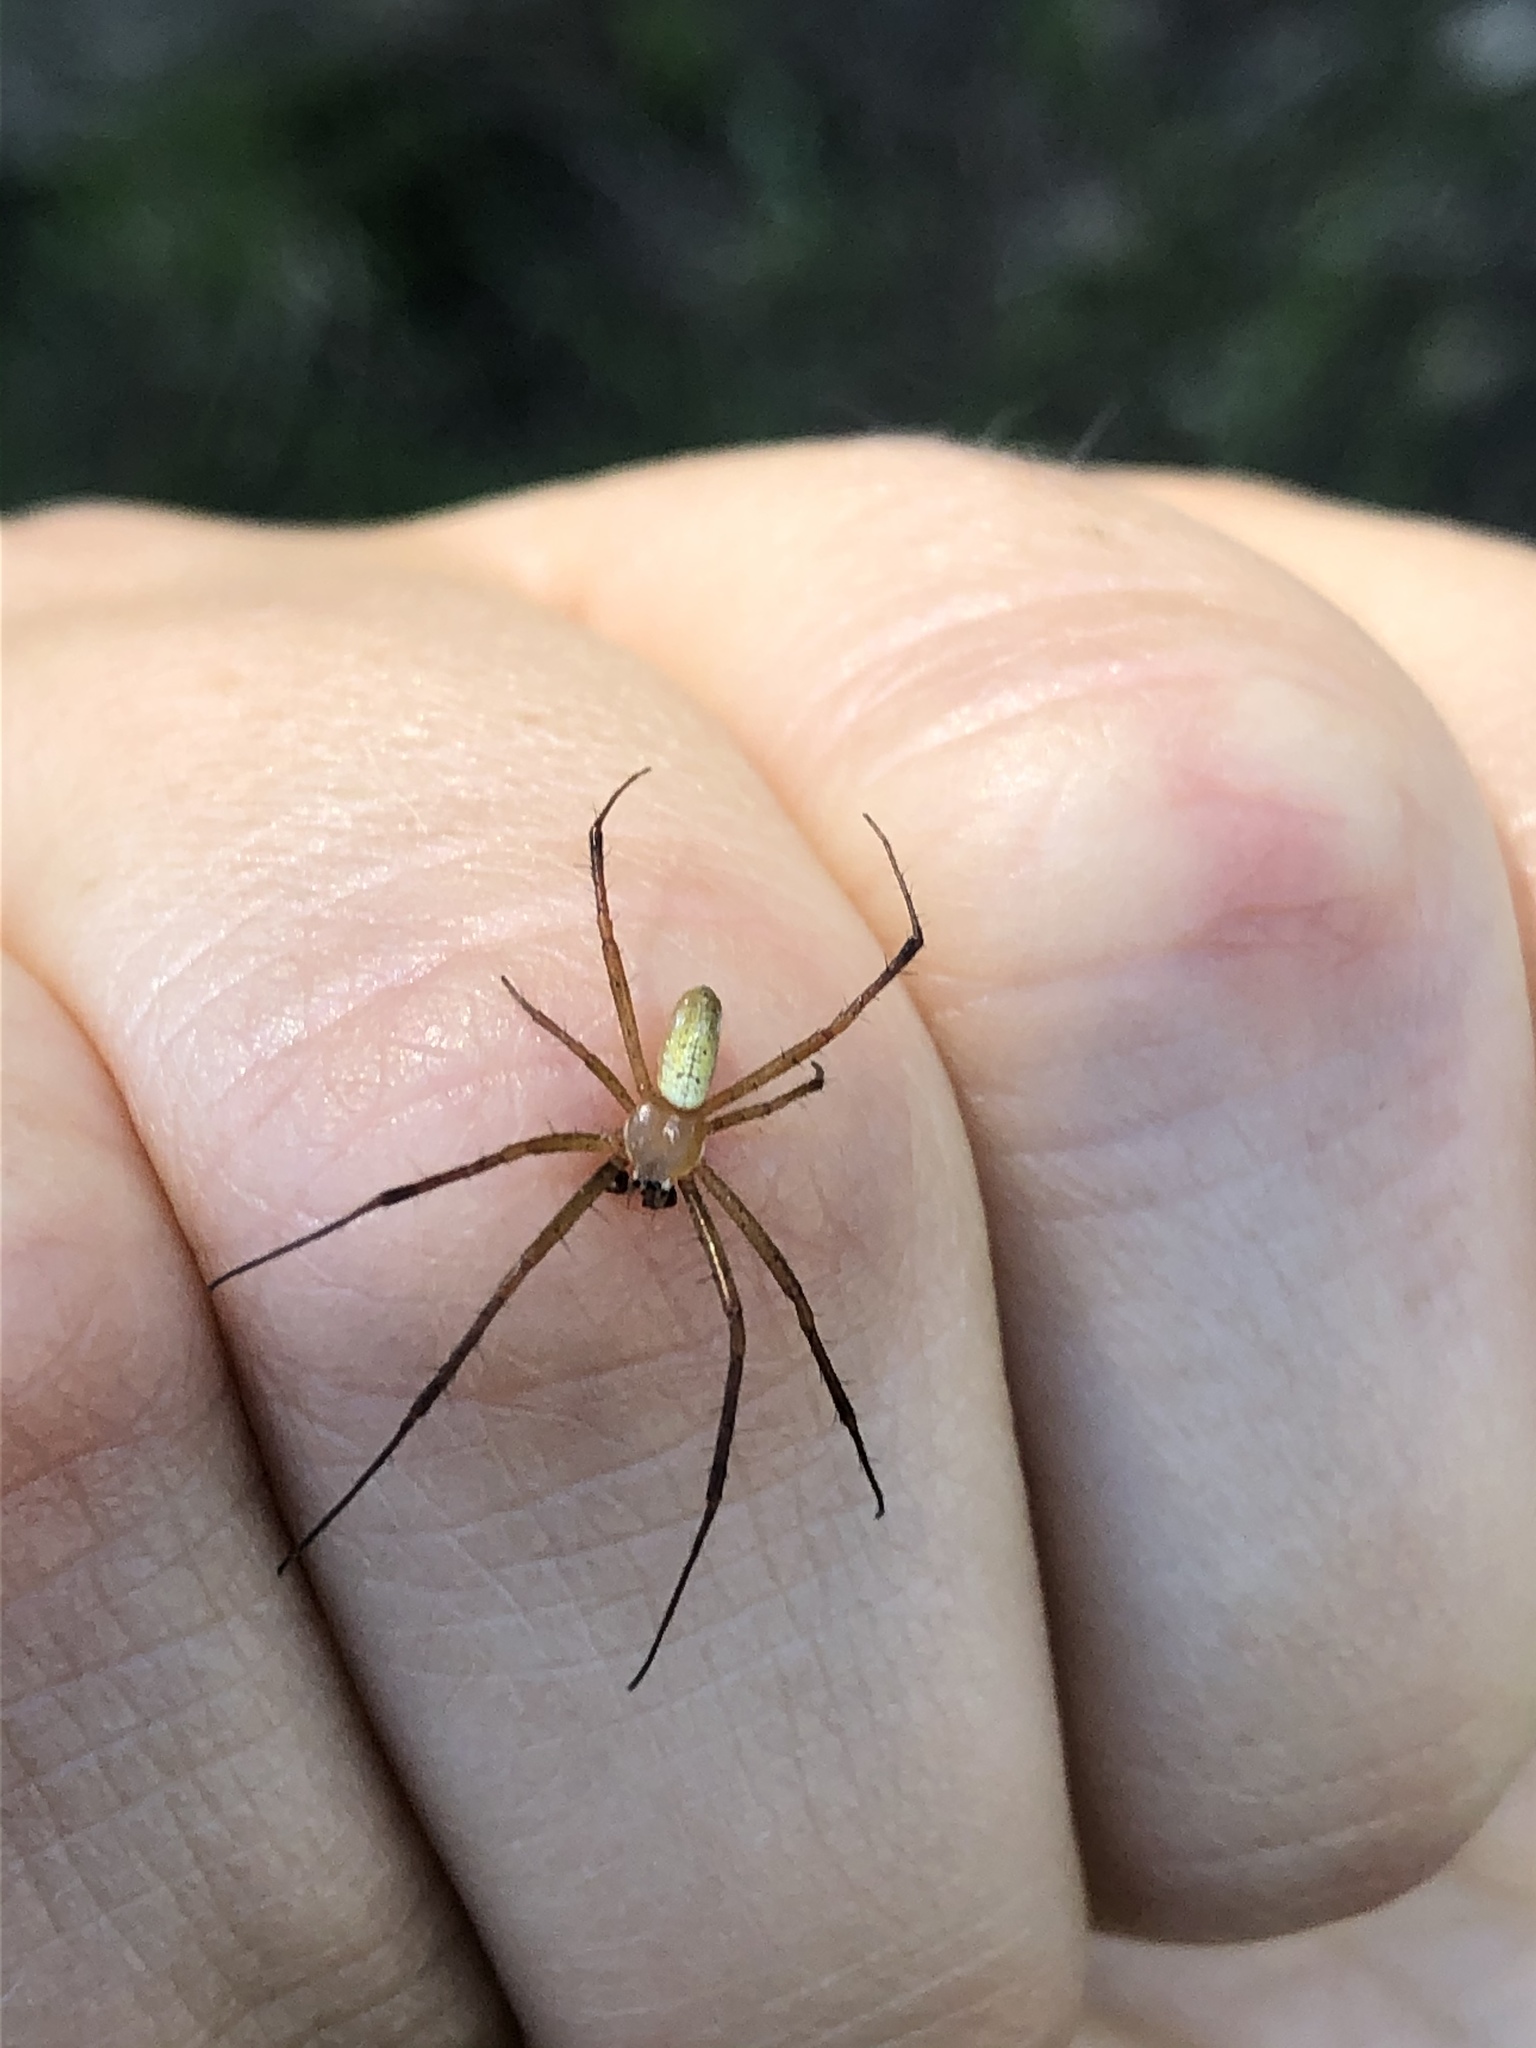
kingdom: Animalia
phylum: Arthropoda
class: Arachnida
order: Araneae
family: Araneidae
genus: Argiope
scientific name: Argiope trifasciata
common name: Banded garden spider
